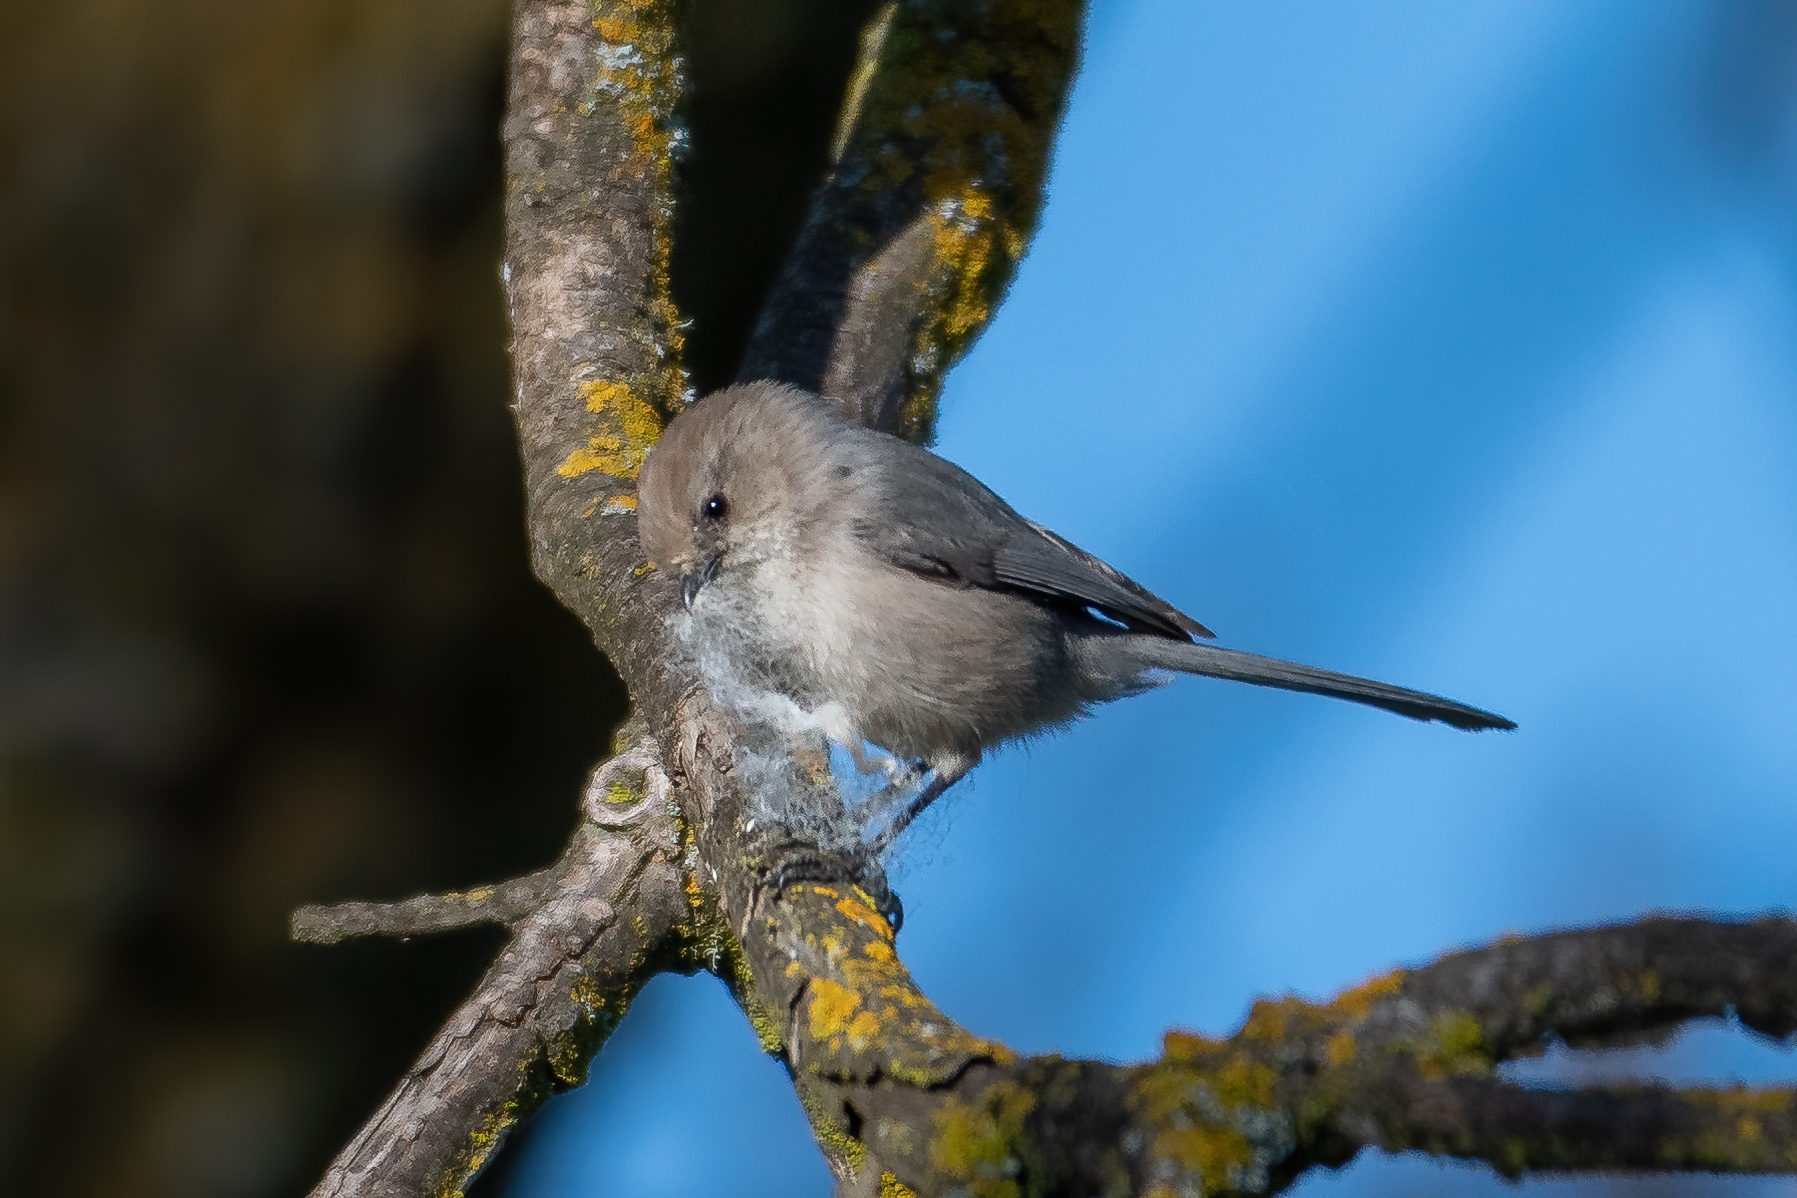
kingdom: Animalia
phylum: Chordata
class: Aves
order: Passeriformes
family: Aegithalidae
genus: Psaltriparus
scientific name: Psaltriparus minimus
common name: American bushtit
